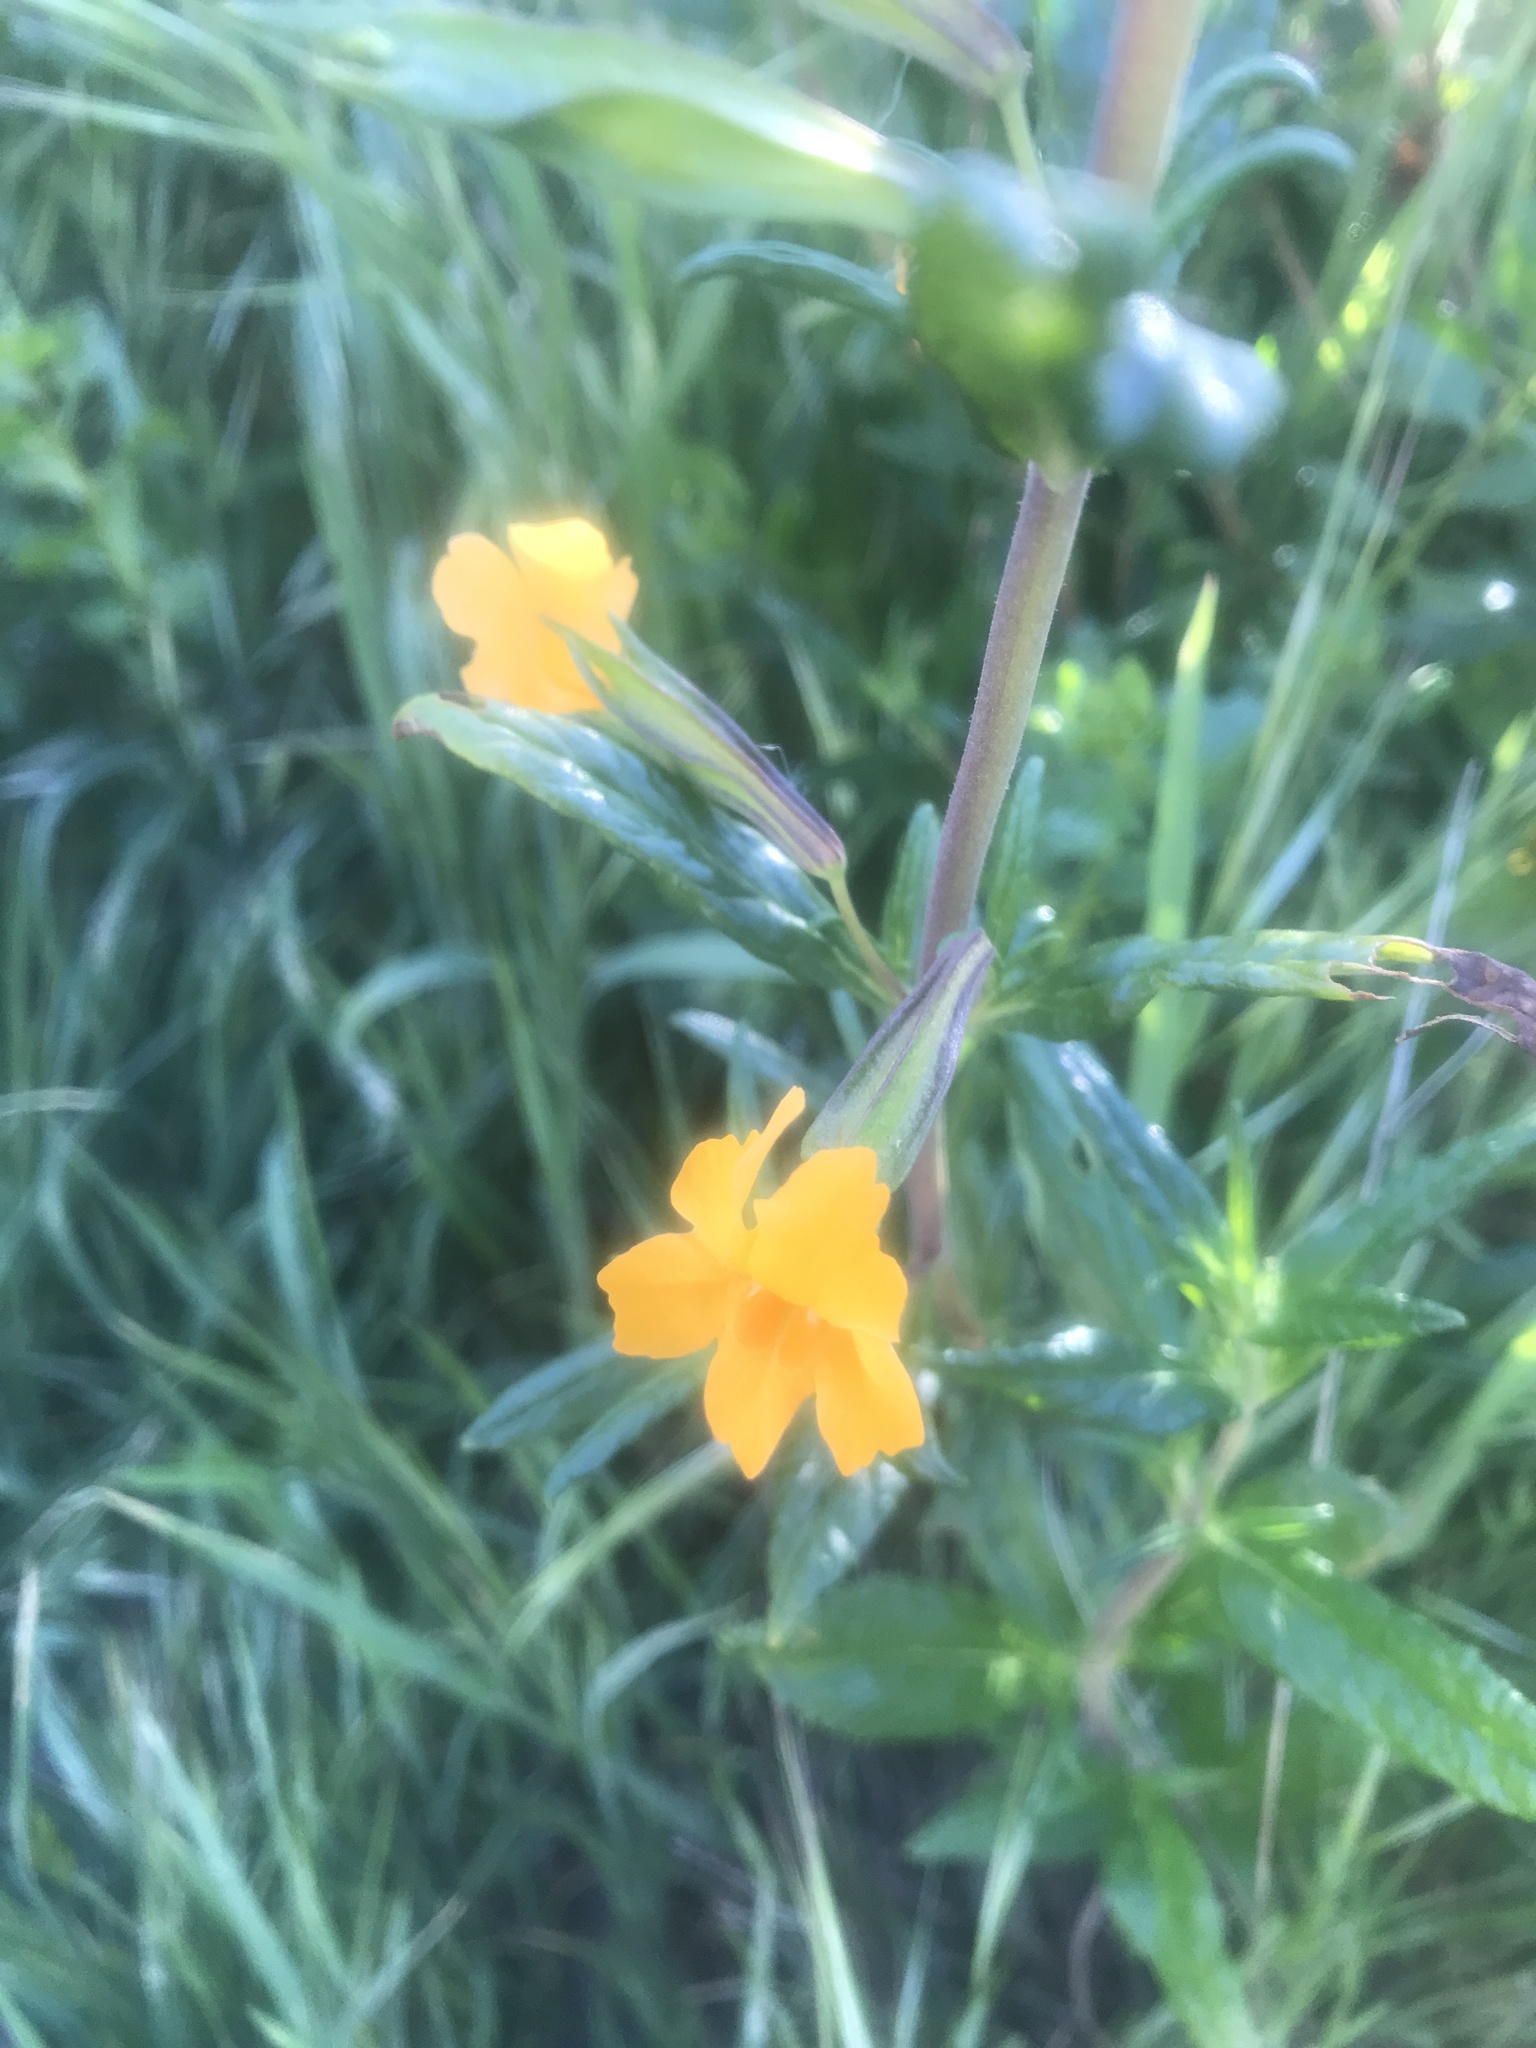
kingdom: Plantae
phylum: Tracheophyta
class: Magnoliopsida
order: Lamiales
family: Phrymaceae
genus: Diplacus
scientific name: Diplacus aurantiacus
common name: Bush monkey-flower
